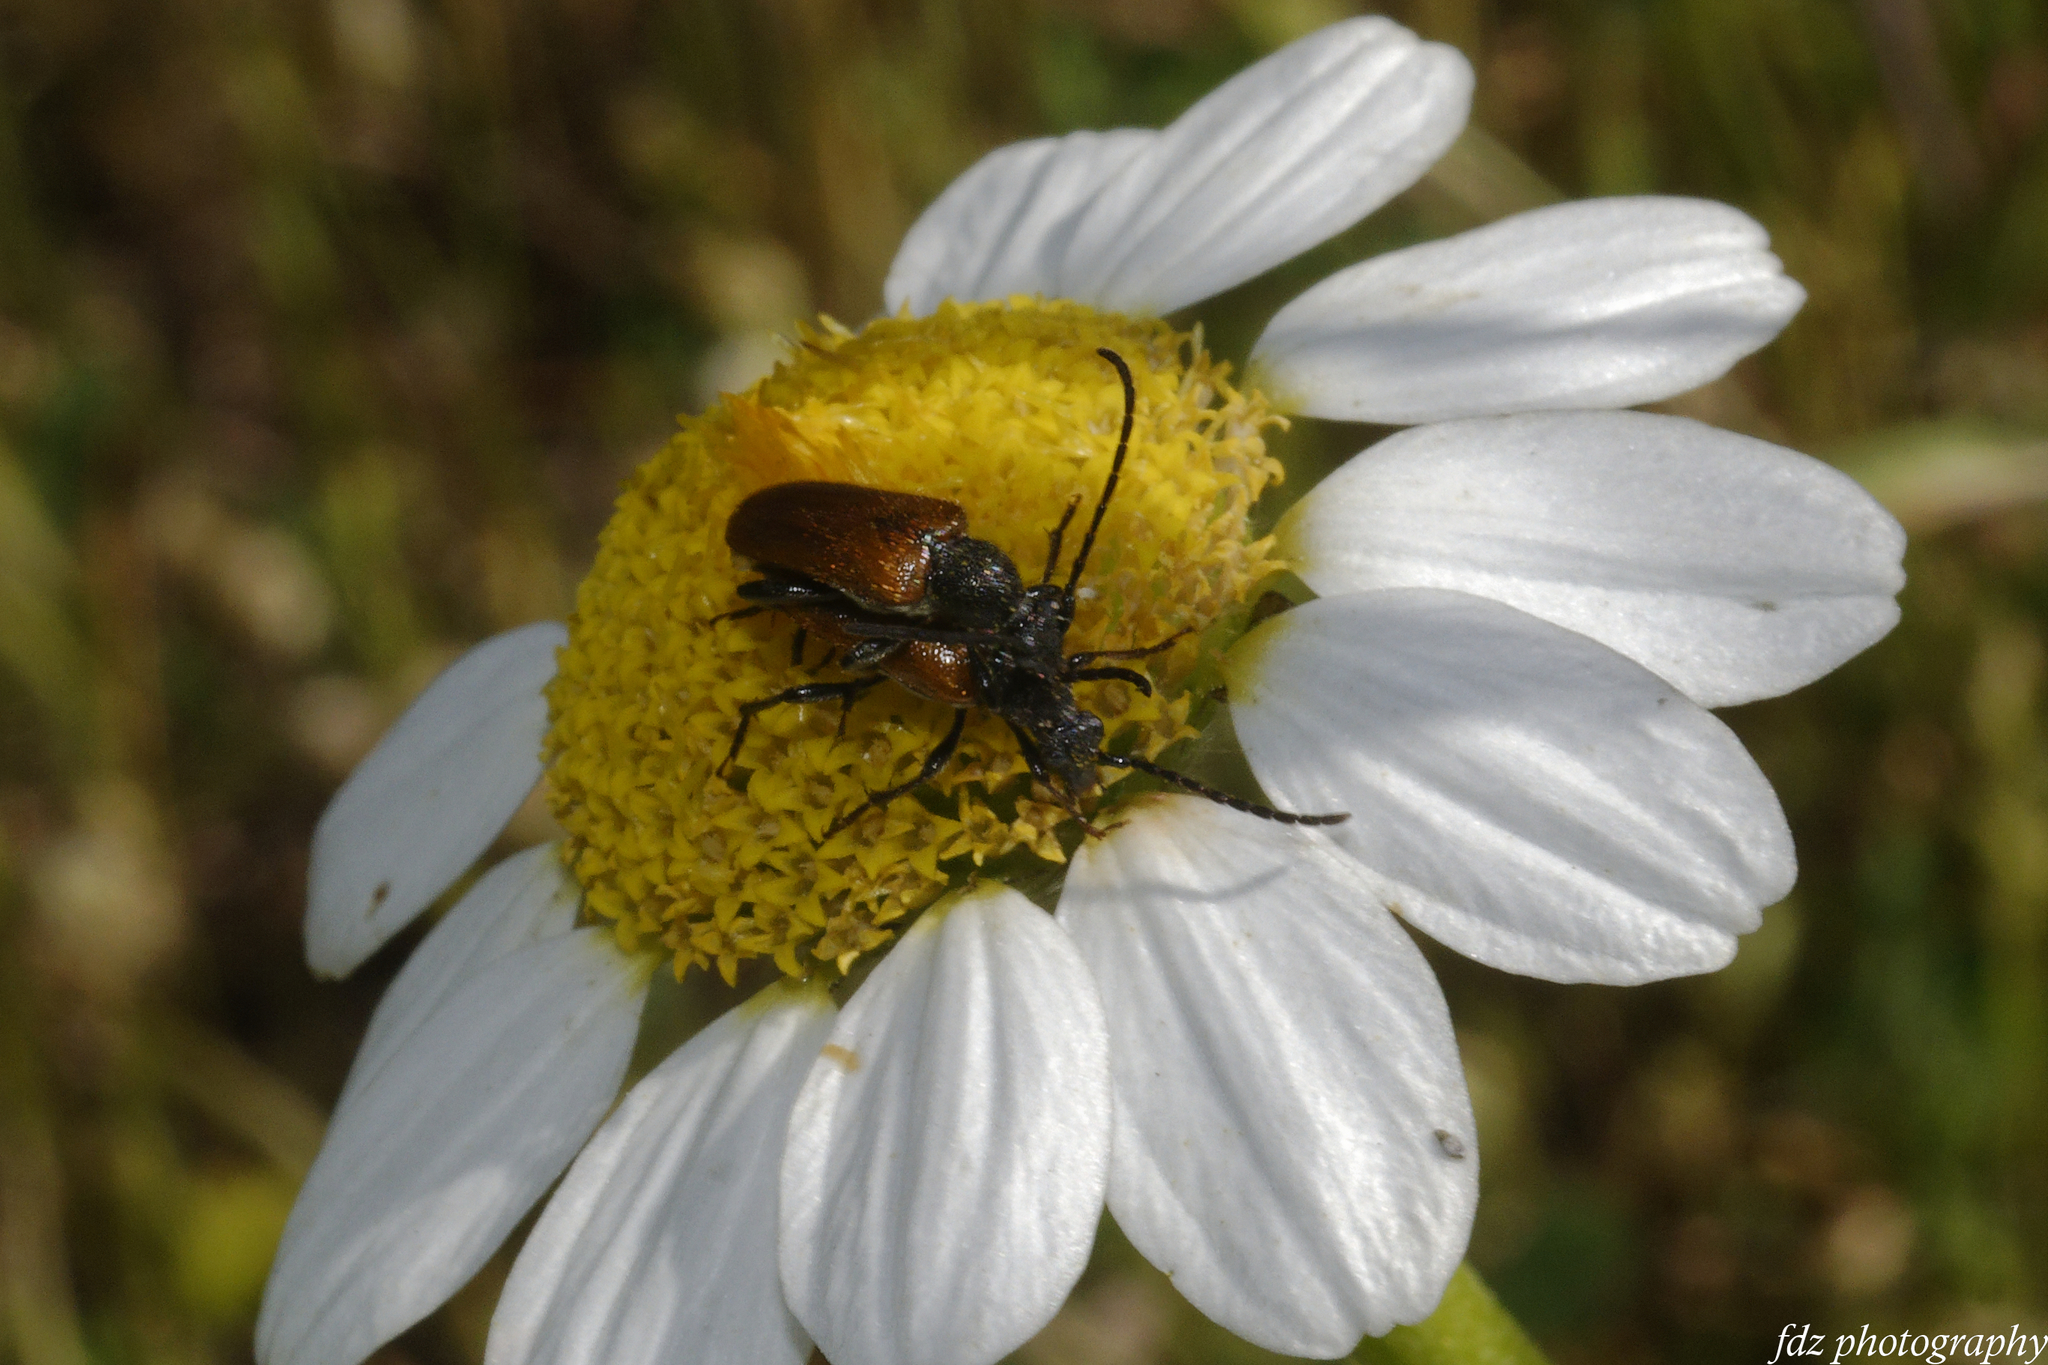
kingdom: Animalia
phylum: Arthropoda
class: Insecta
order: Coleoptera
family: Cerambycidae
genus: Pseudovadonia
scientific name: Pseudovadonia livida
